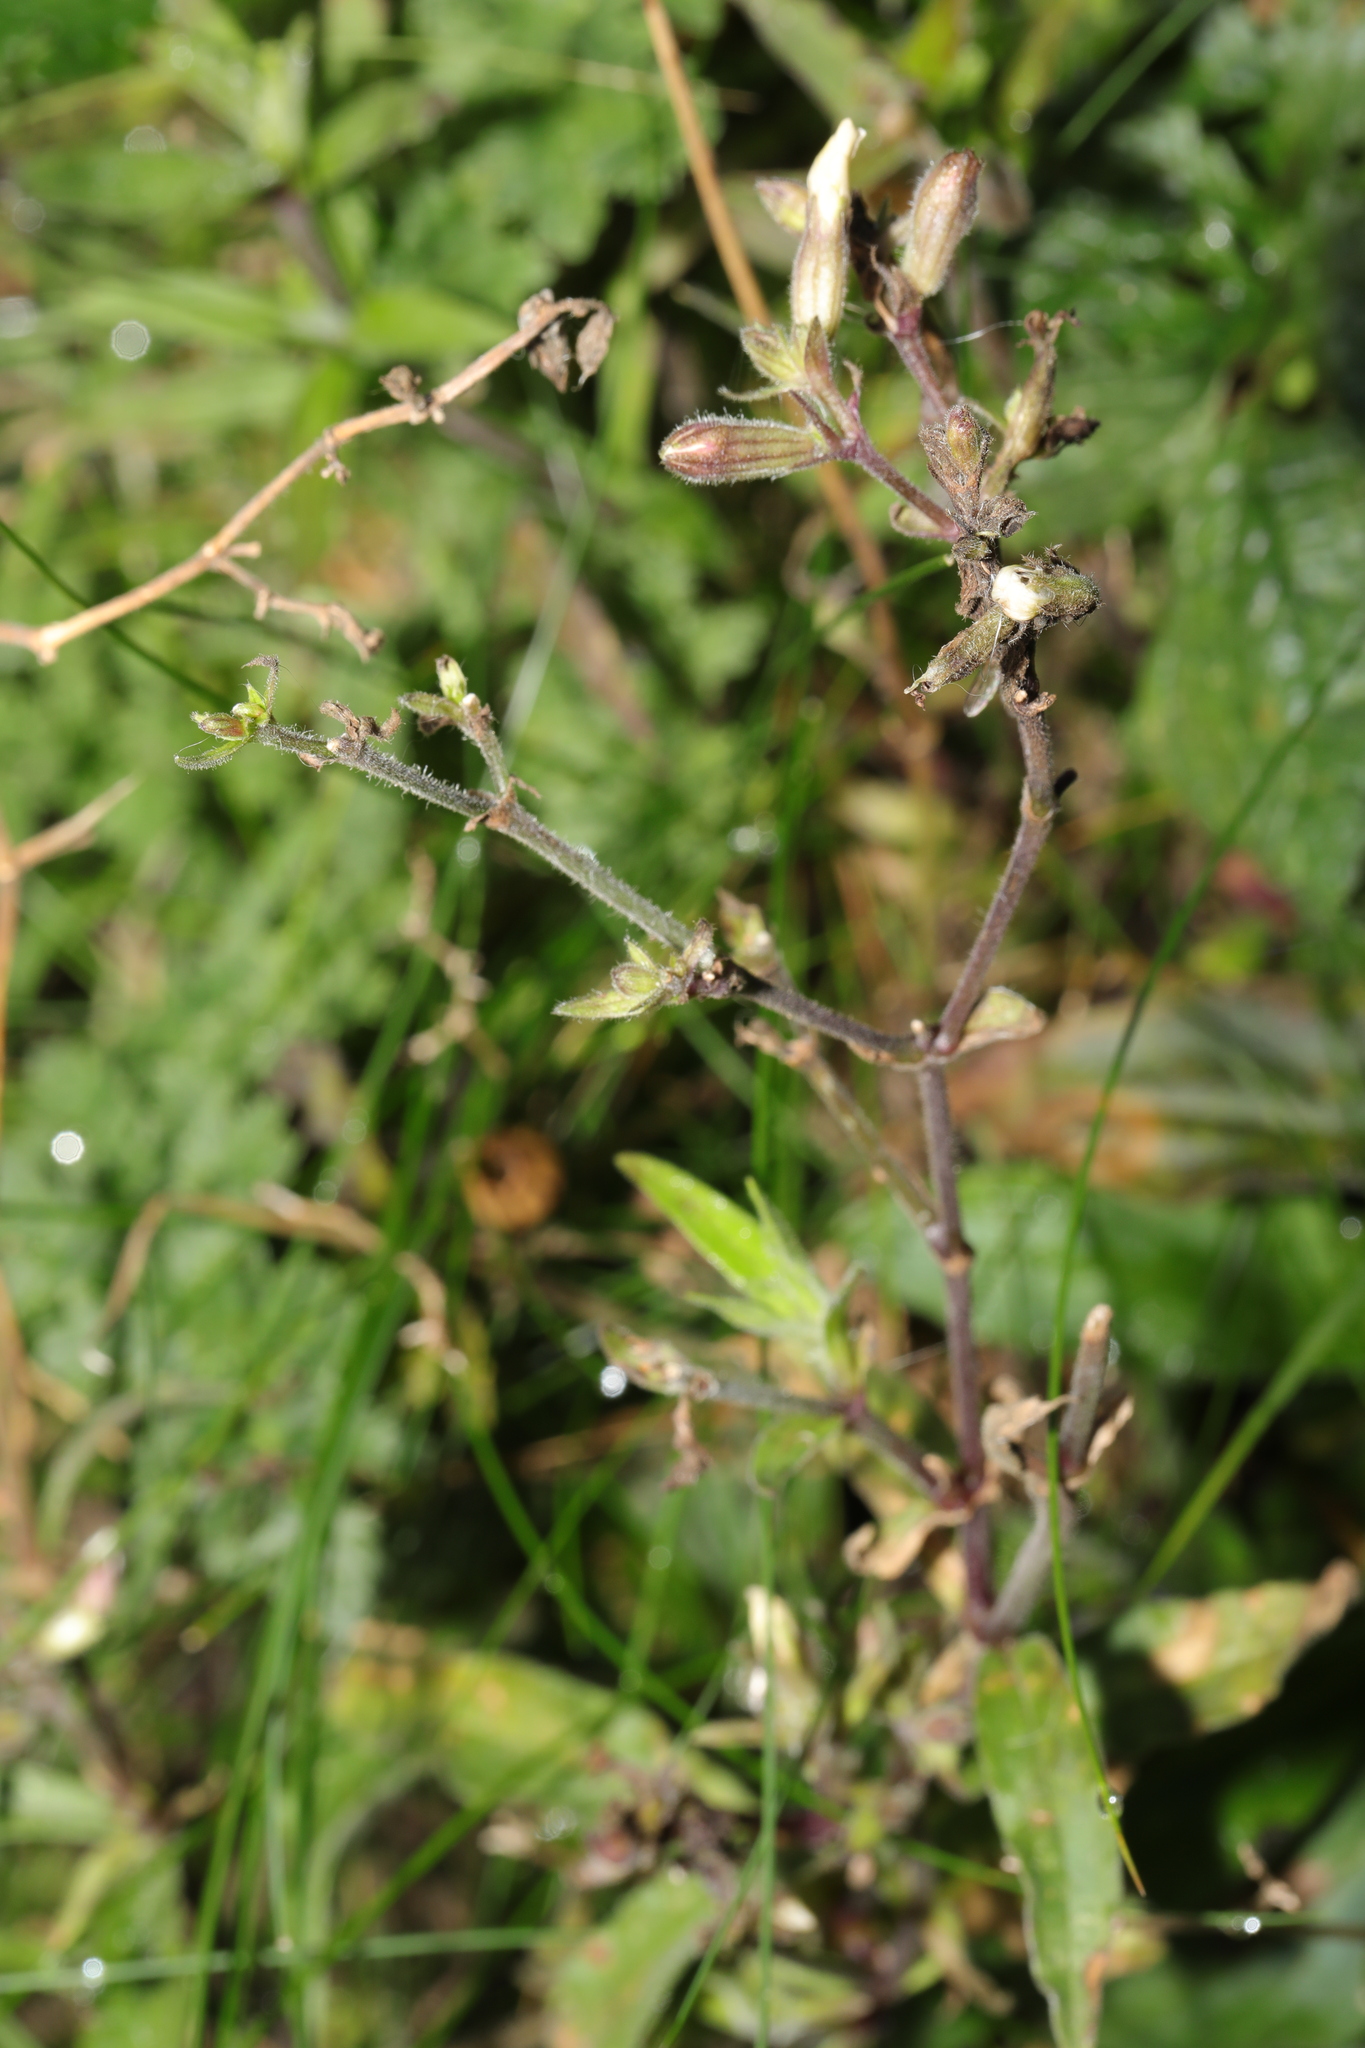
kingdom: Plantae
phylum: Tracheophyta
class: Magnoliopsida
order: Caryophyllales
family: Caryophyllaceae
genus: Silene
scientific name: Silene dioica
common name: Red campion
